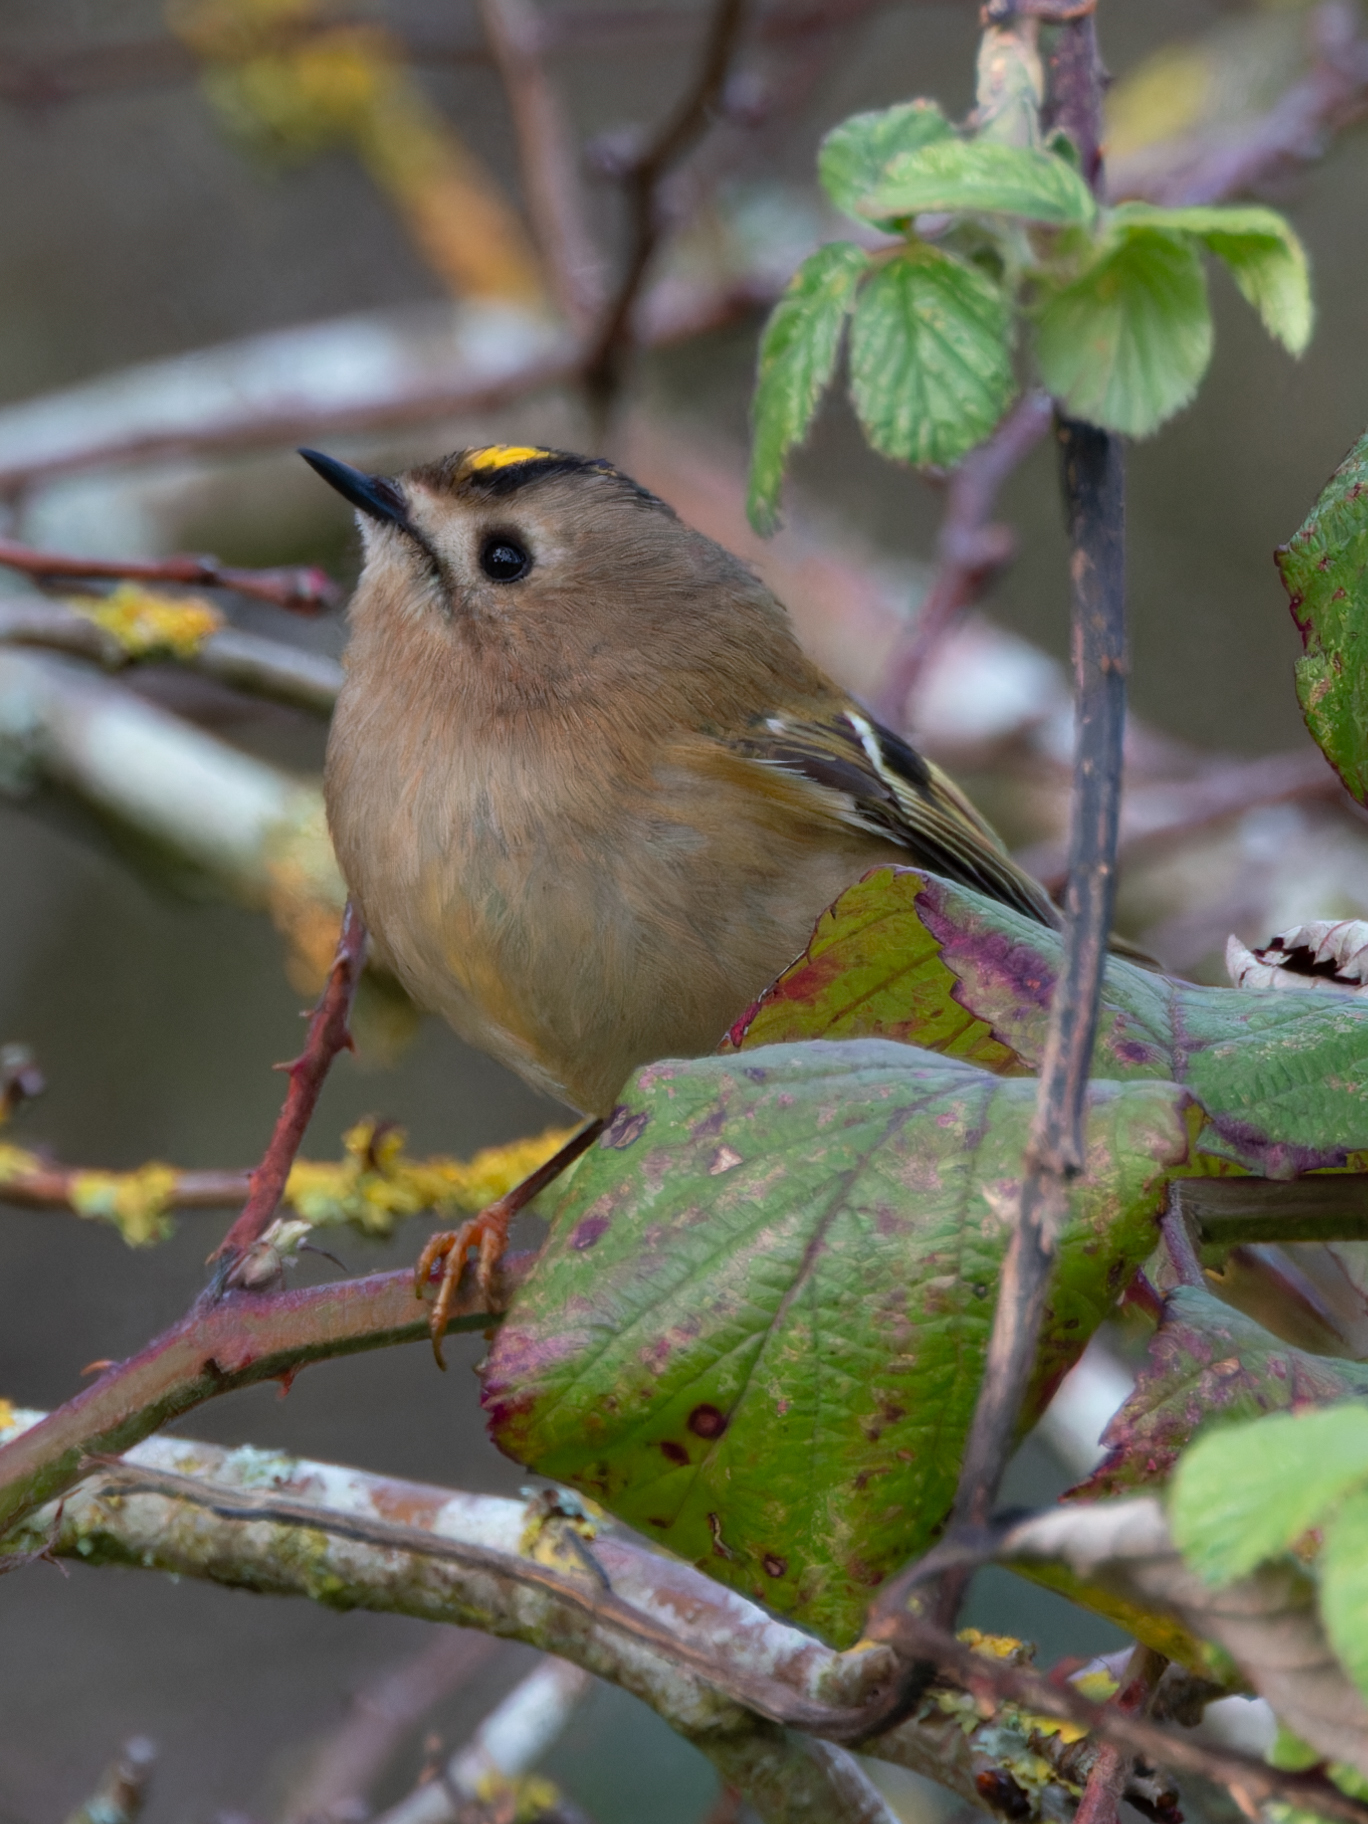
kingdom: Animalia
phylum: Chordata
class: Aves
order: Passeriformes
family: Regulidae
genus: Regulus
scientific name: Regulus regulus
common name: Goldcrest
